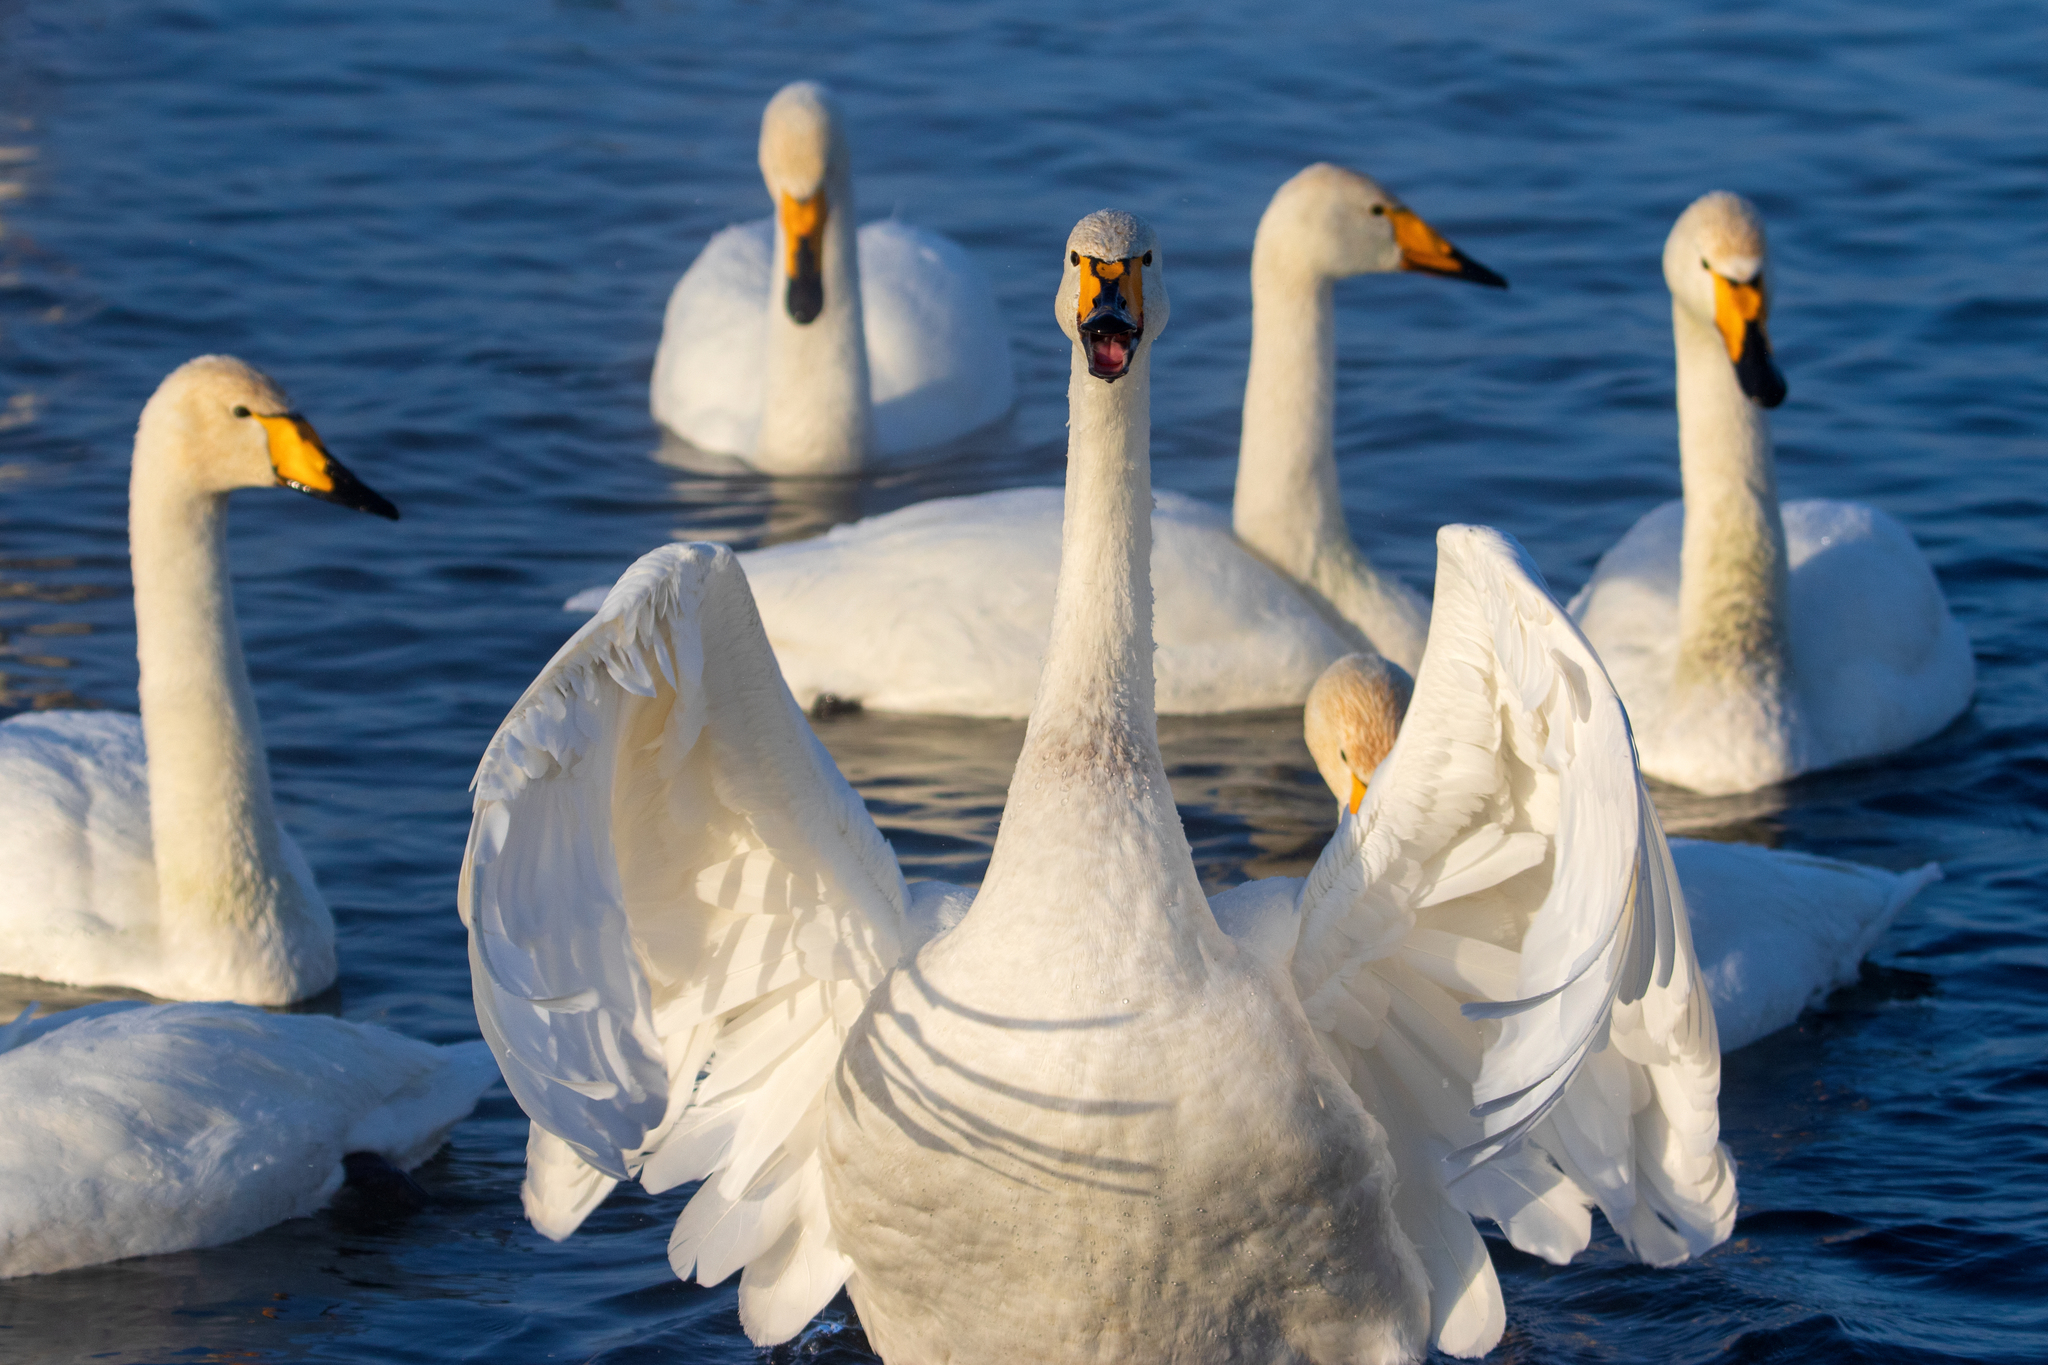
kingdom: Animalia
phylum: Chordata
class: Aves
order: Anseriformes
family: Anatidae
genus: Cygnus
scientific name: Cygnus cygnus
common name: Whooper swan
